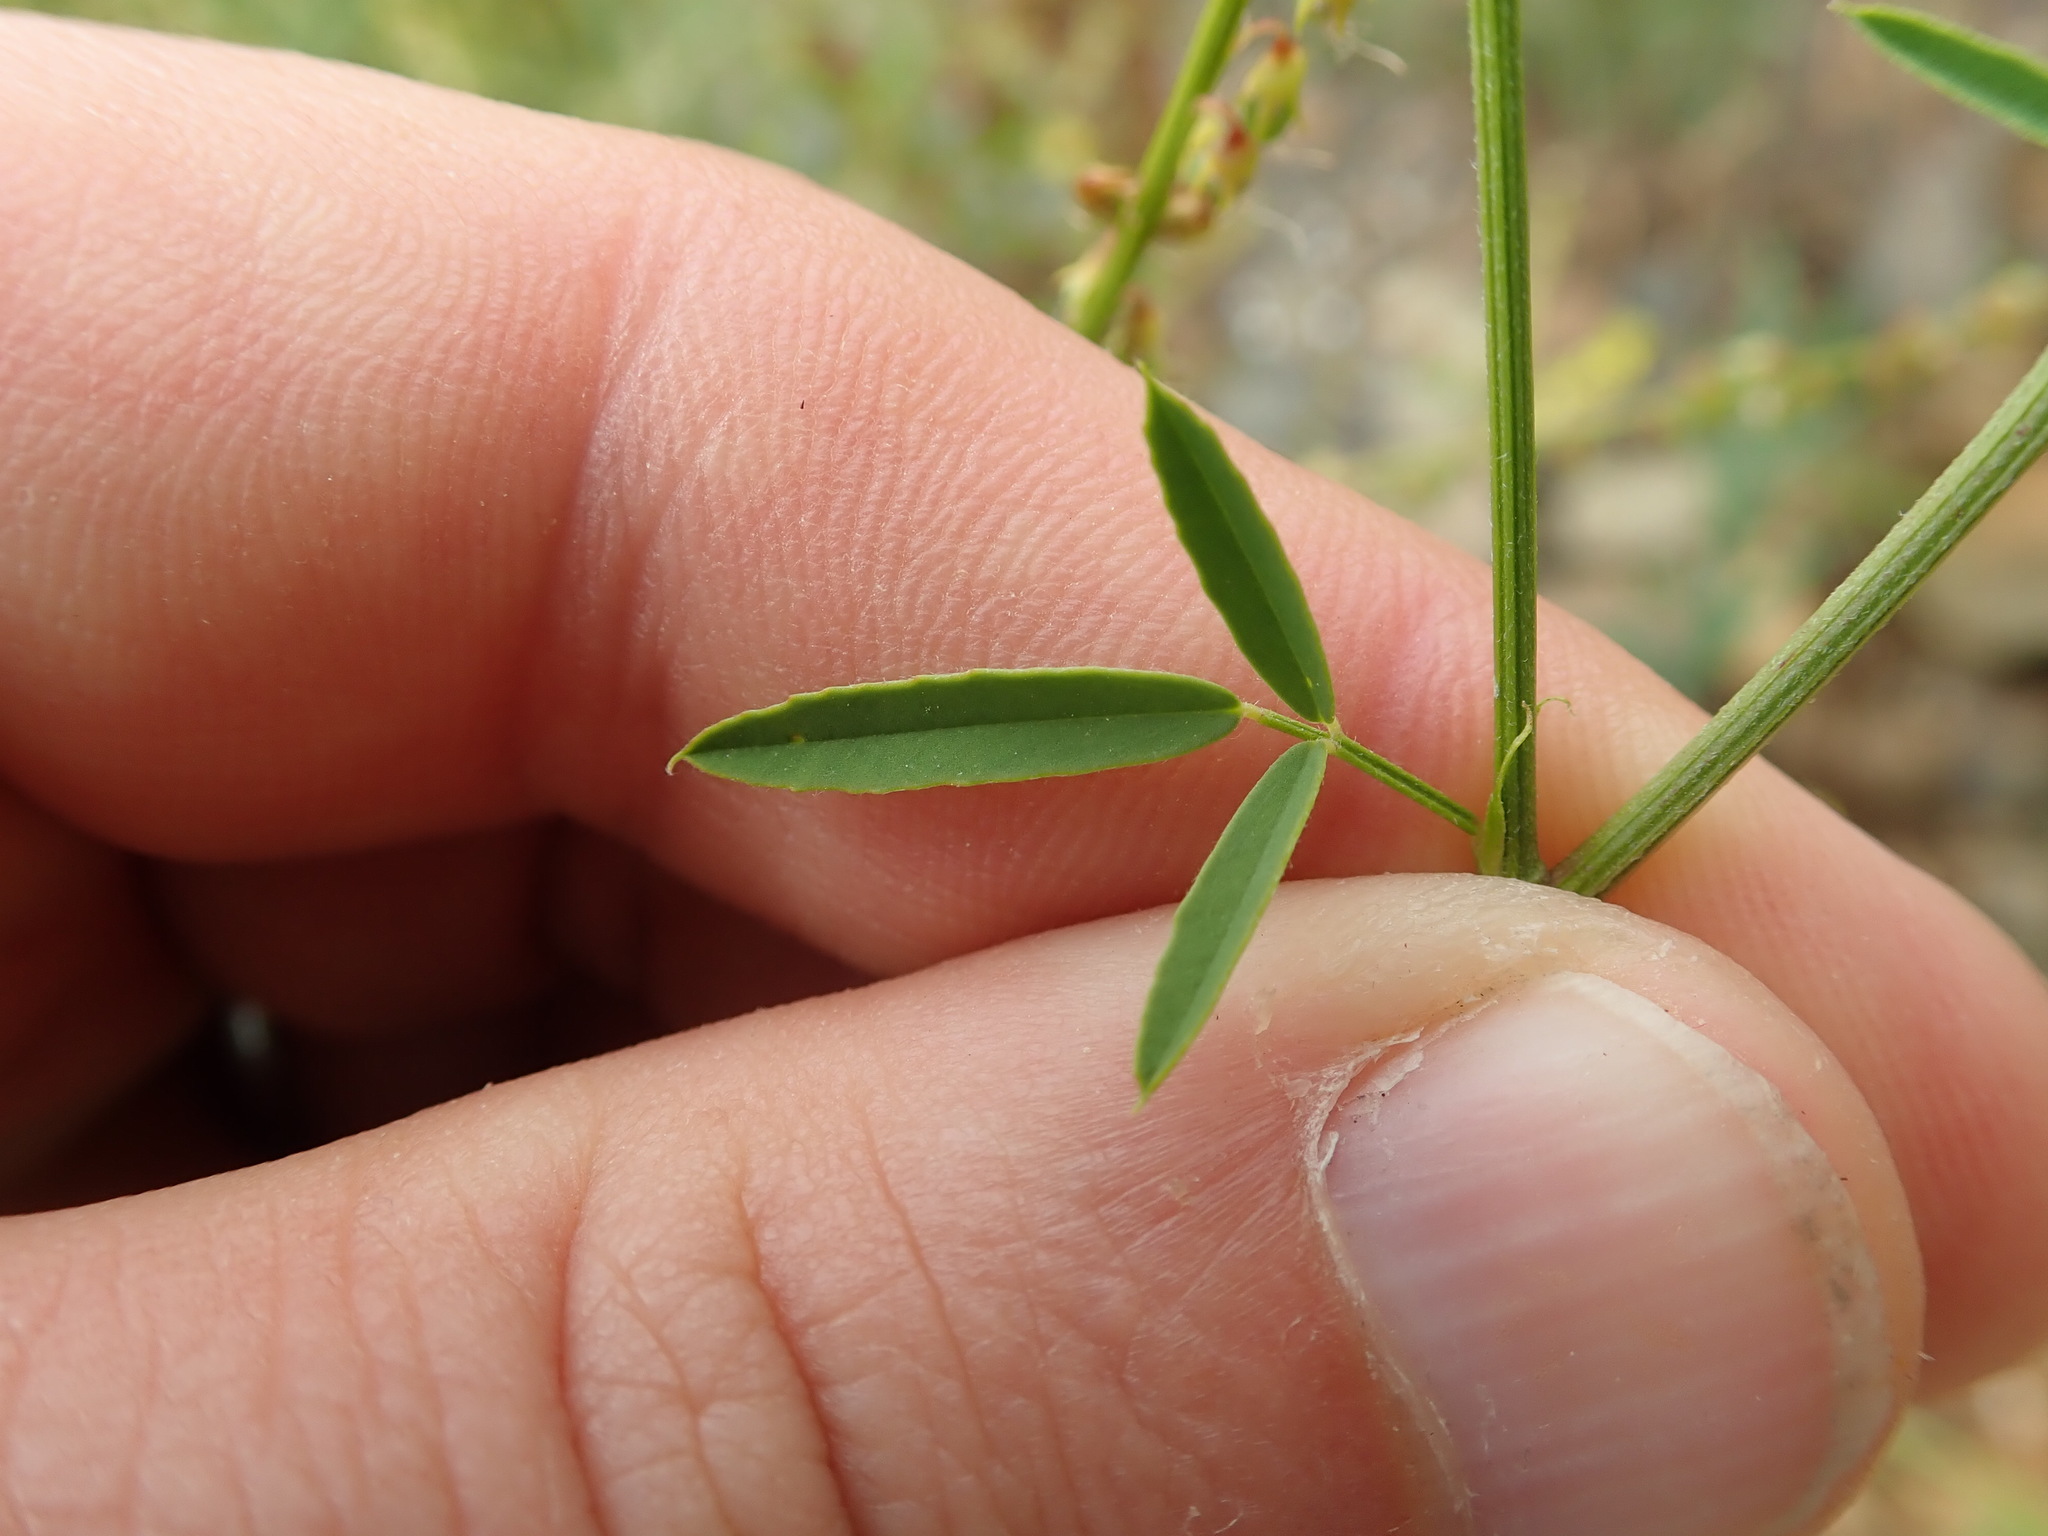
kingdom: Plantae
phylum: Tracheophyta
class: Magnoliopsida
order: Fabales
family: Fabaceae
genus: Melilotus
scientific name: Melilotus officinalis
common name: Sweetclover
